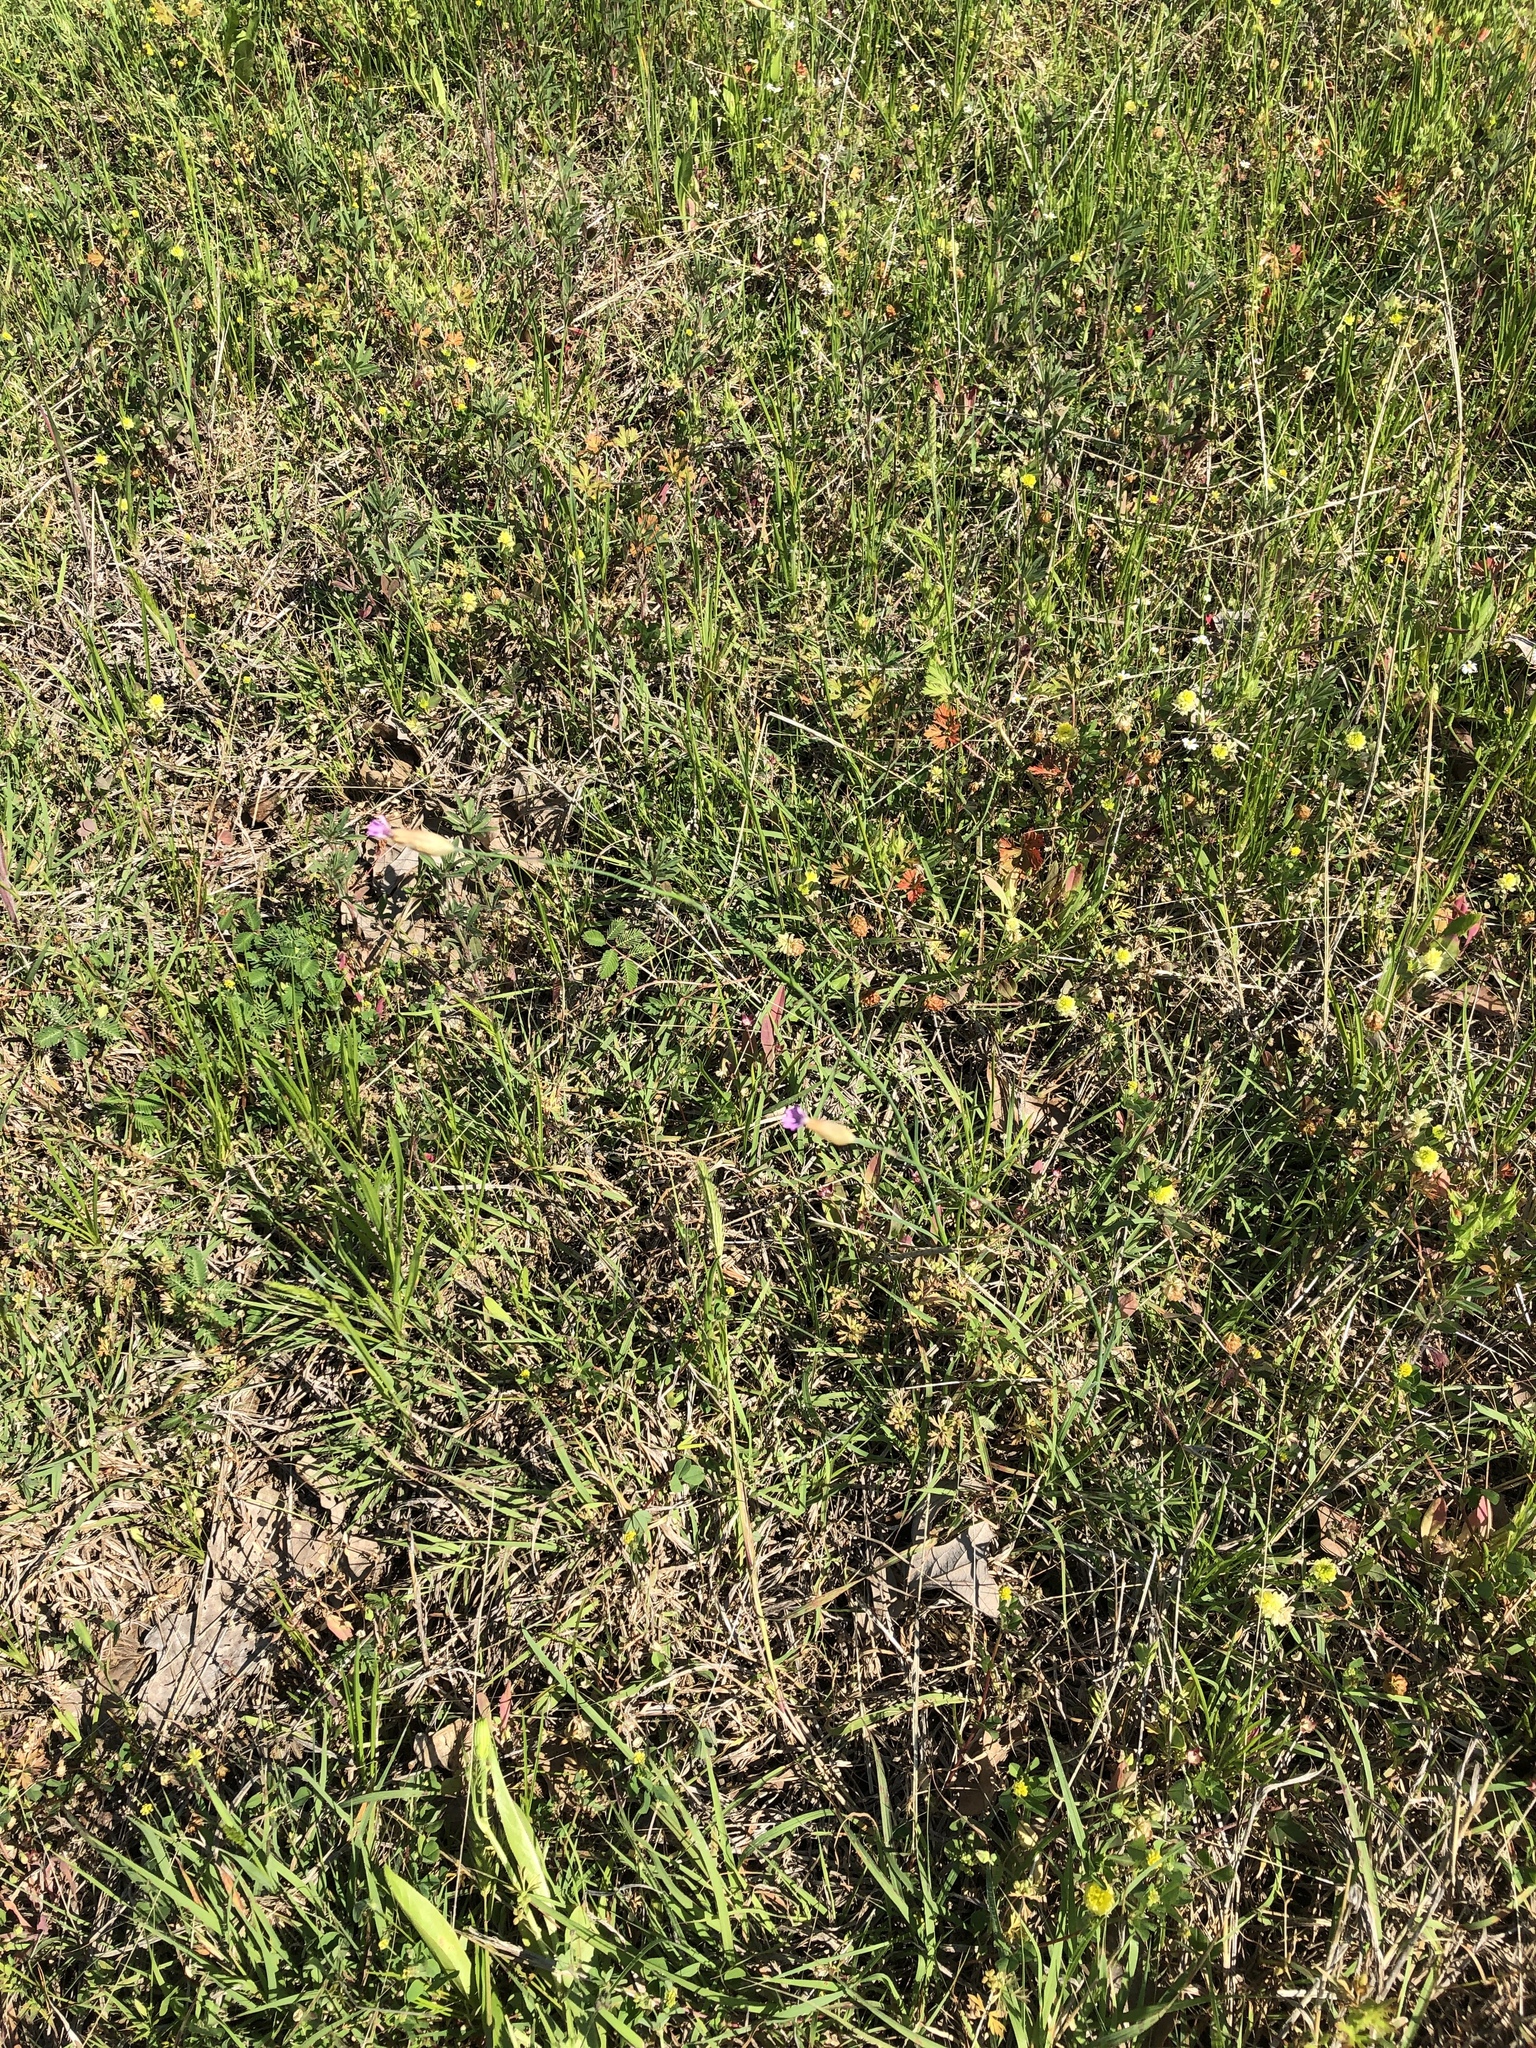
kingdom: Plantae
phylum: Tracheophyta
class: Magnoliopsida
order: Caryophyllales
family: Caryophyllaceae
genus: Petrorhagia
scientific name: Petrorhagia dubia
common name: Hairypink
